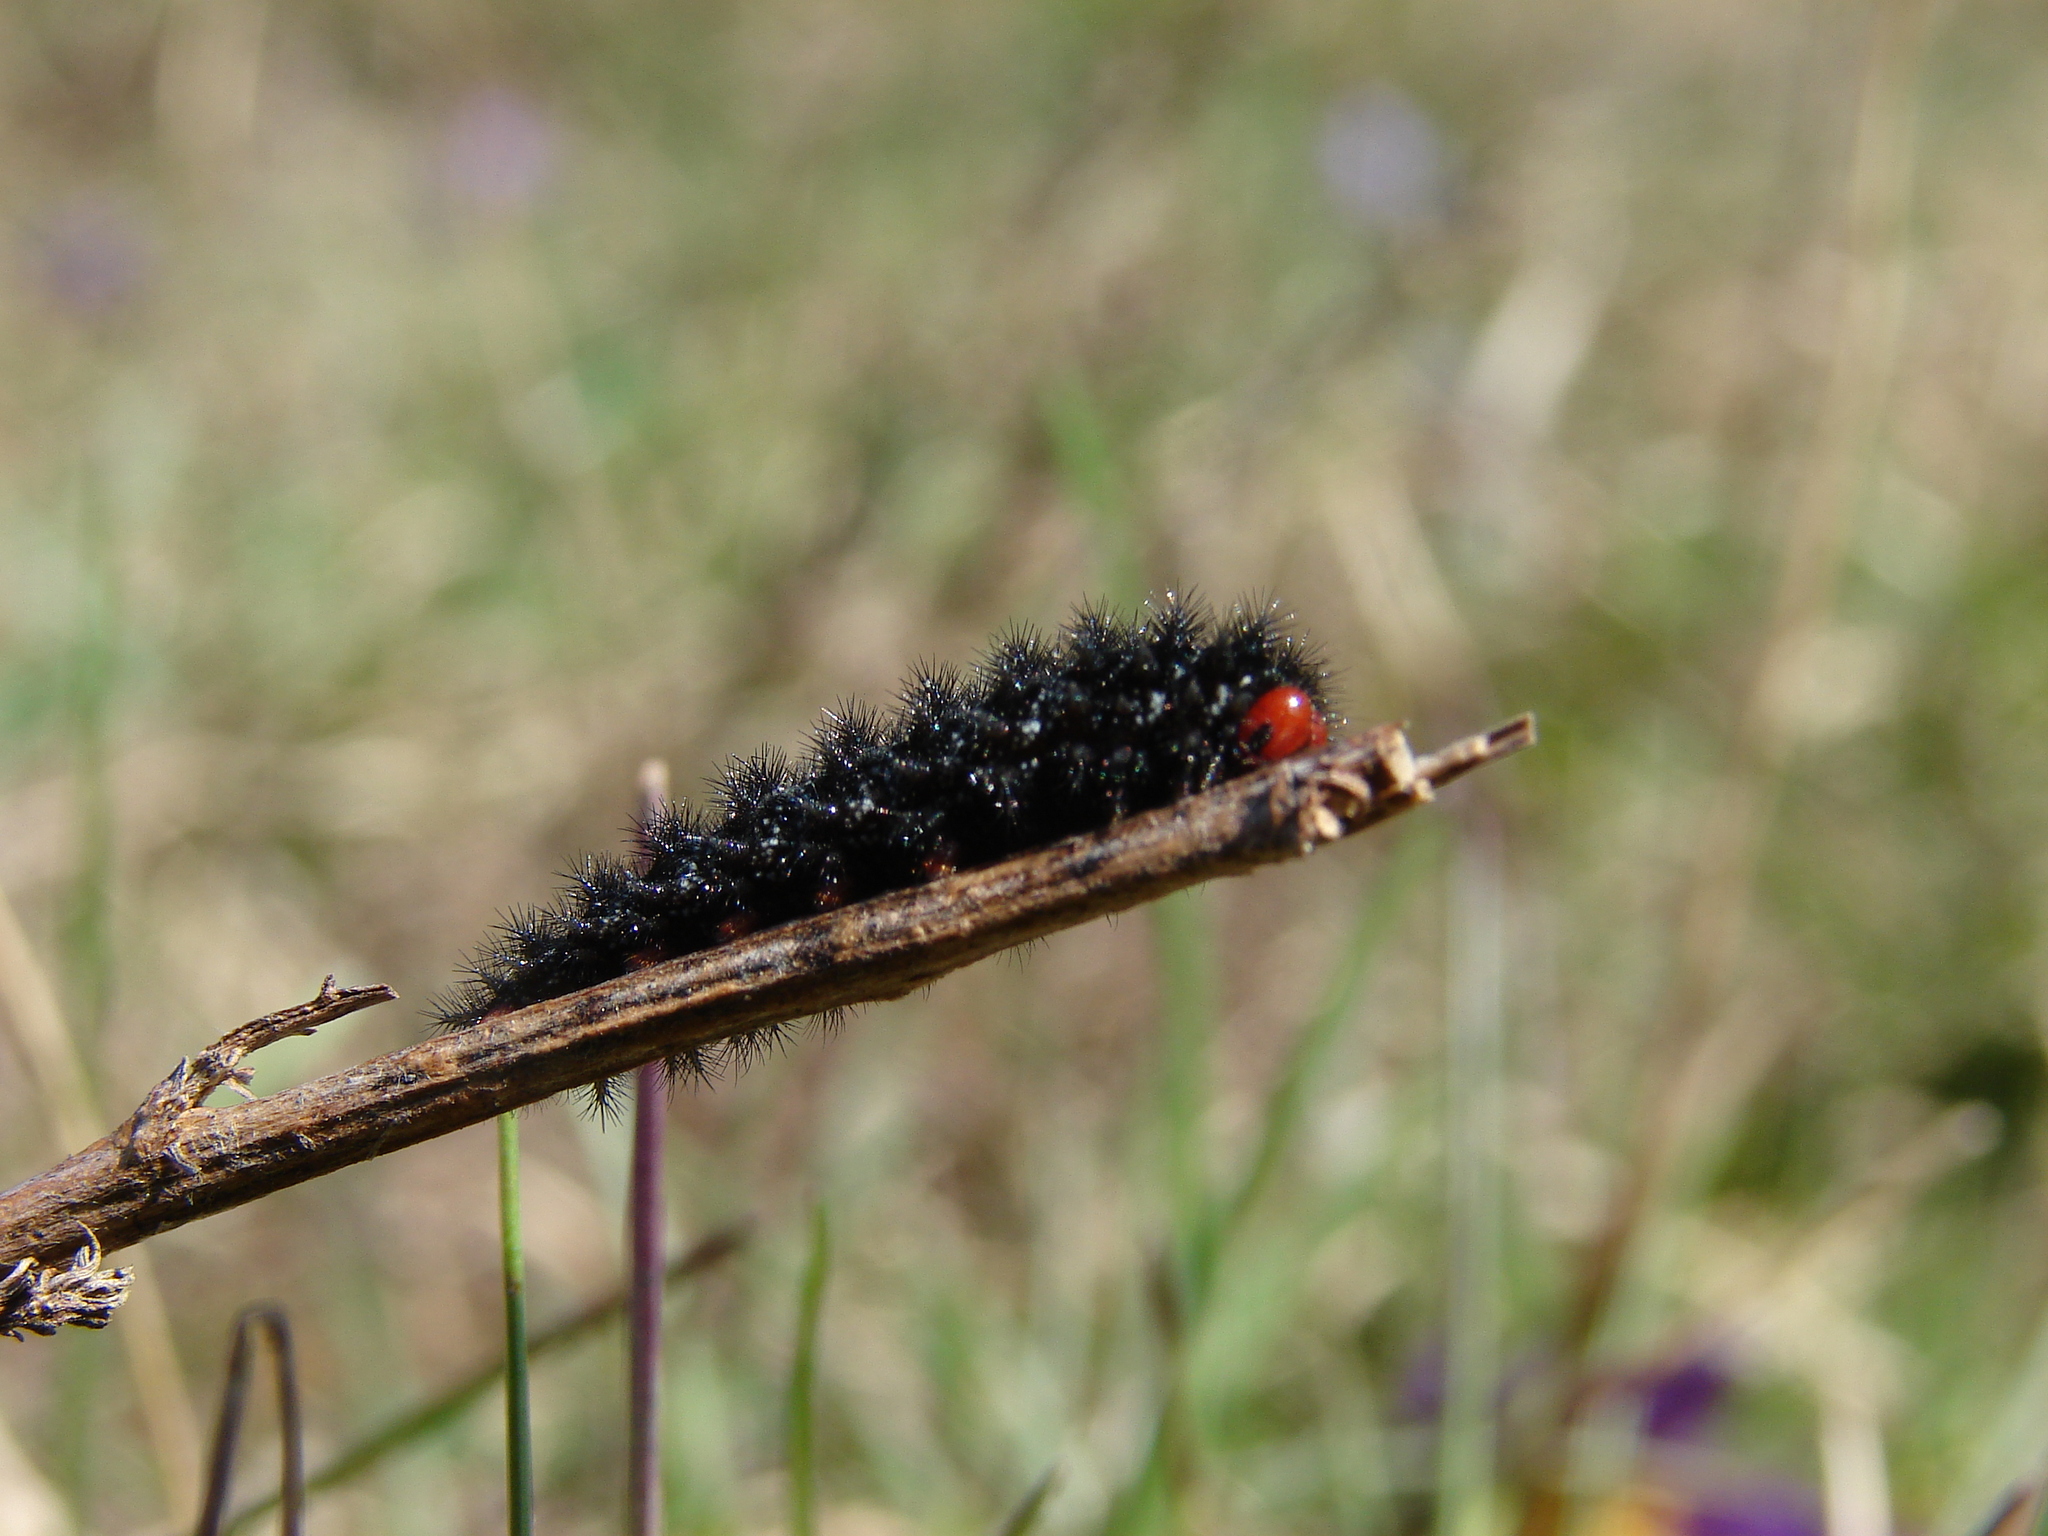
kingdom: Animalia
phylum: Arthropoda
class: Insecta
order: Lepidoptera
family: Nymphalidae
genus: Melitaea
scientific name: Melitaea cinxia
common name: Glanville fritillary
